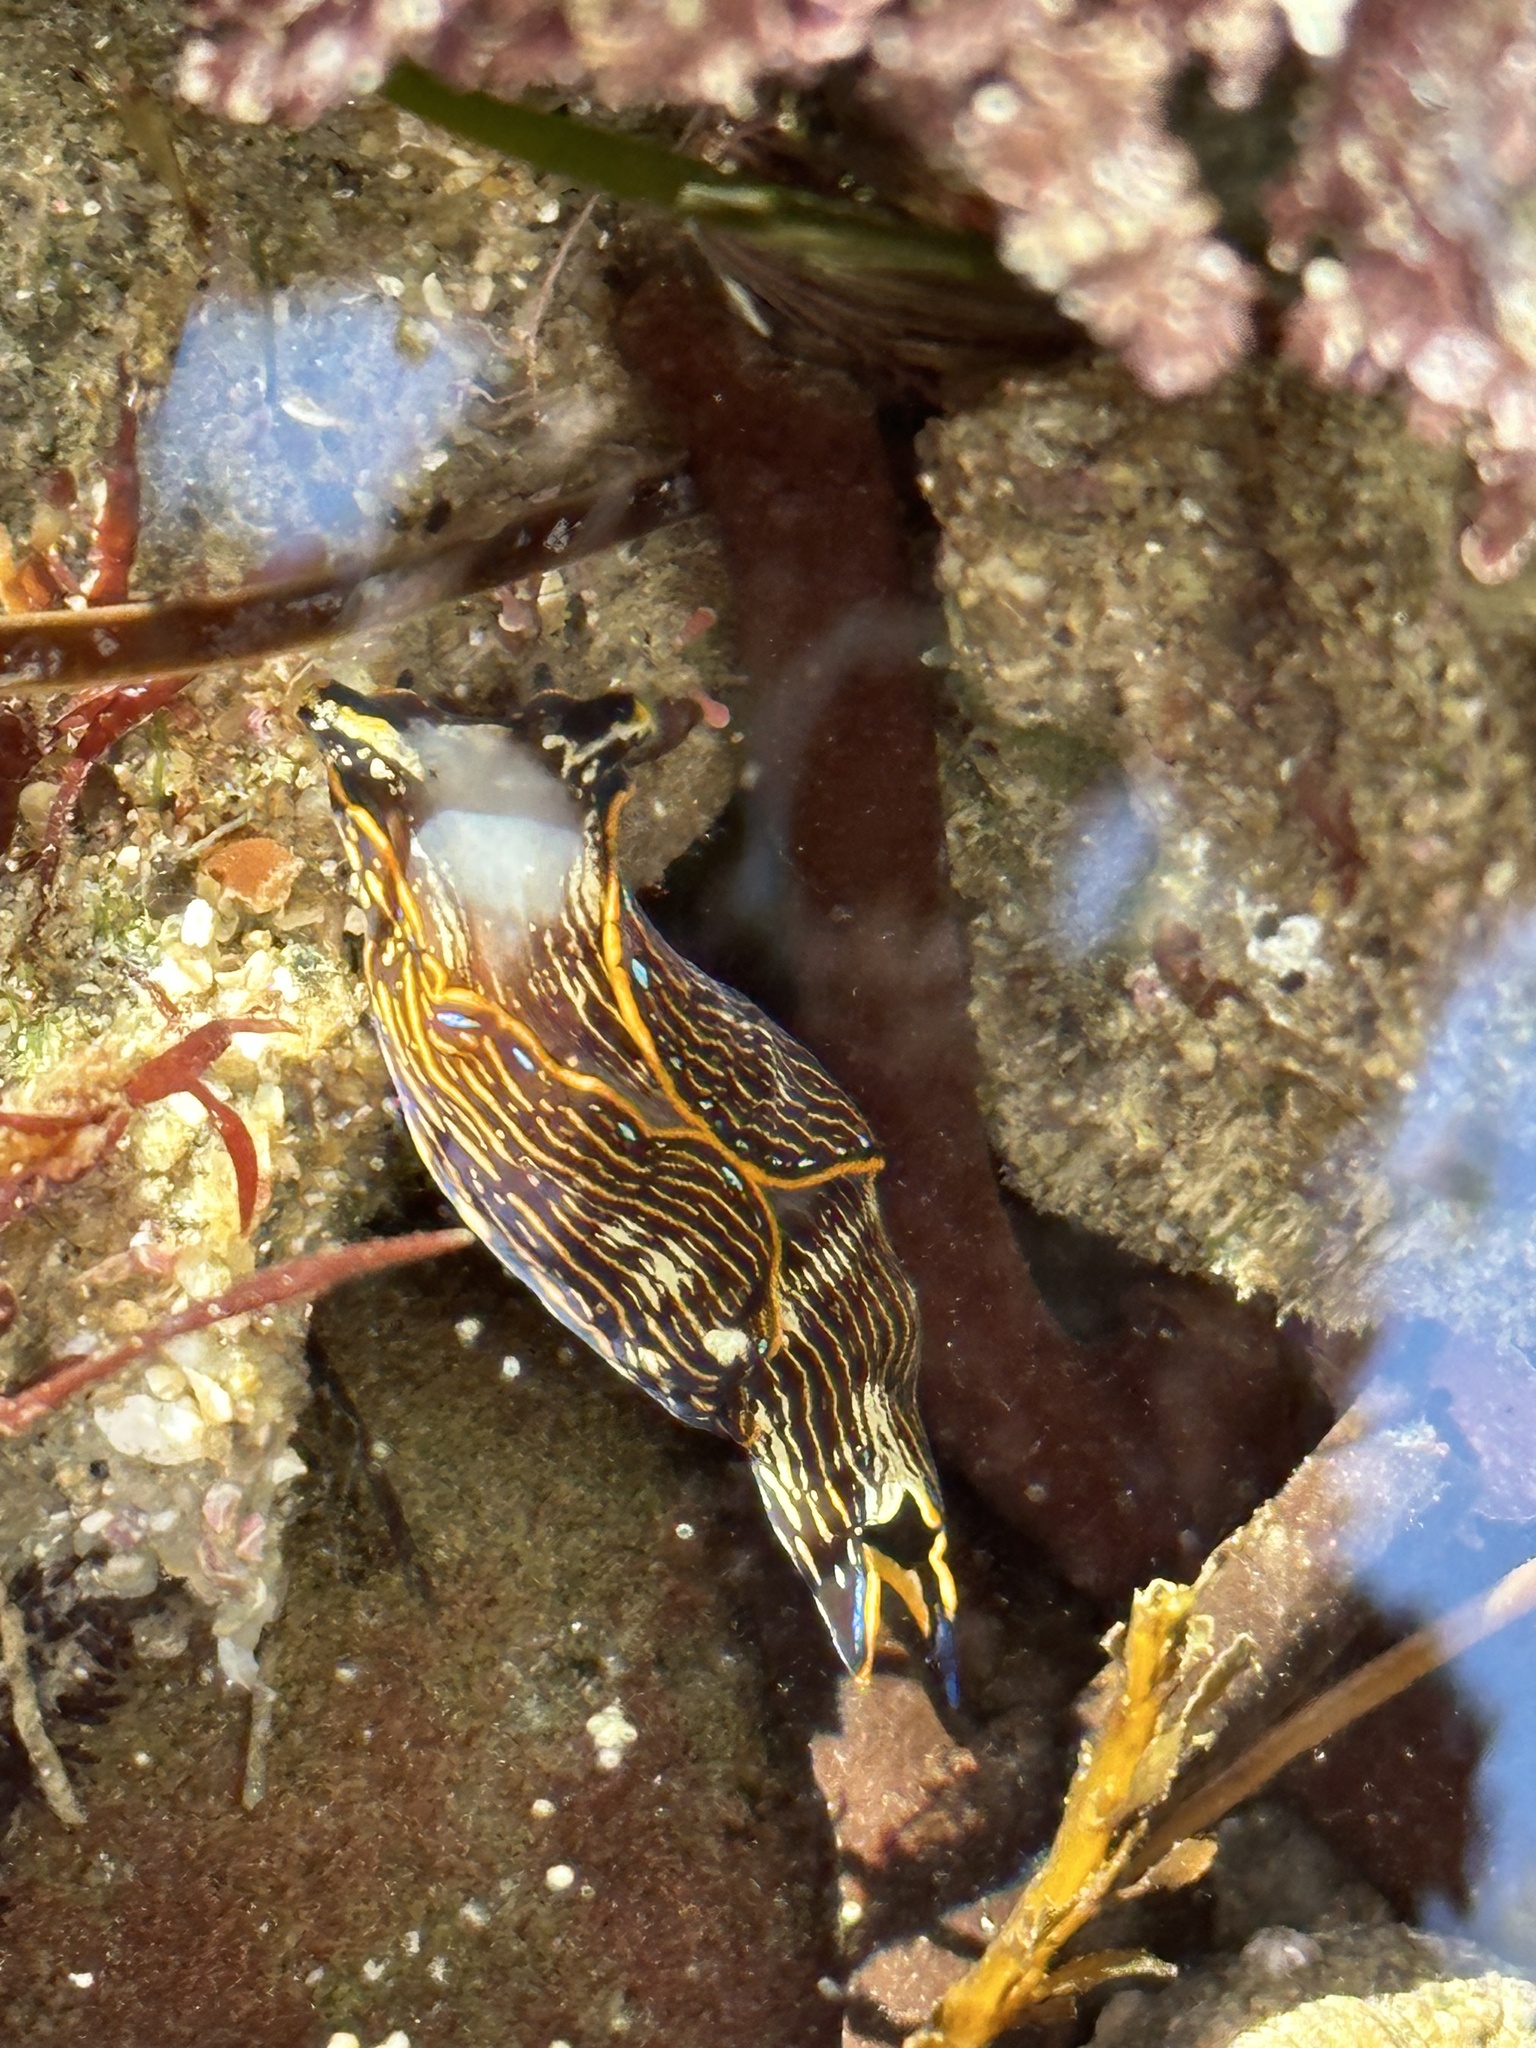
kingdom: Animalia
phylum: Mollusca
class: Gastropoda
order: Cephalaspidea
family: Aglajidae
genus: Navanax
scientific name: Navanax inermis
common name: California aglaja
